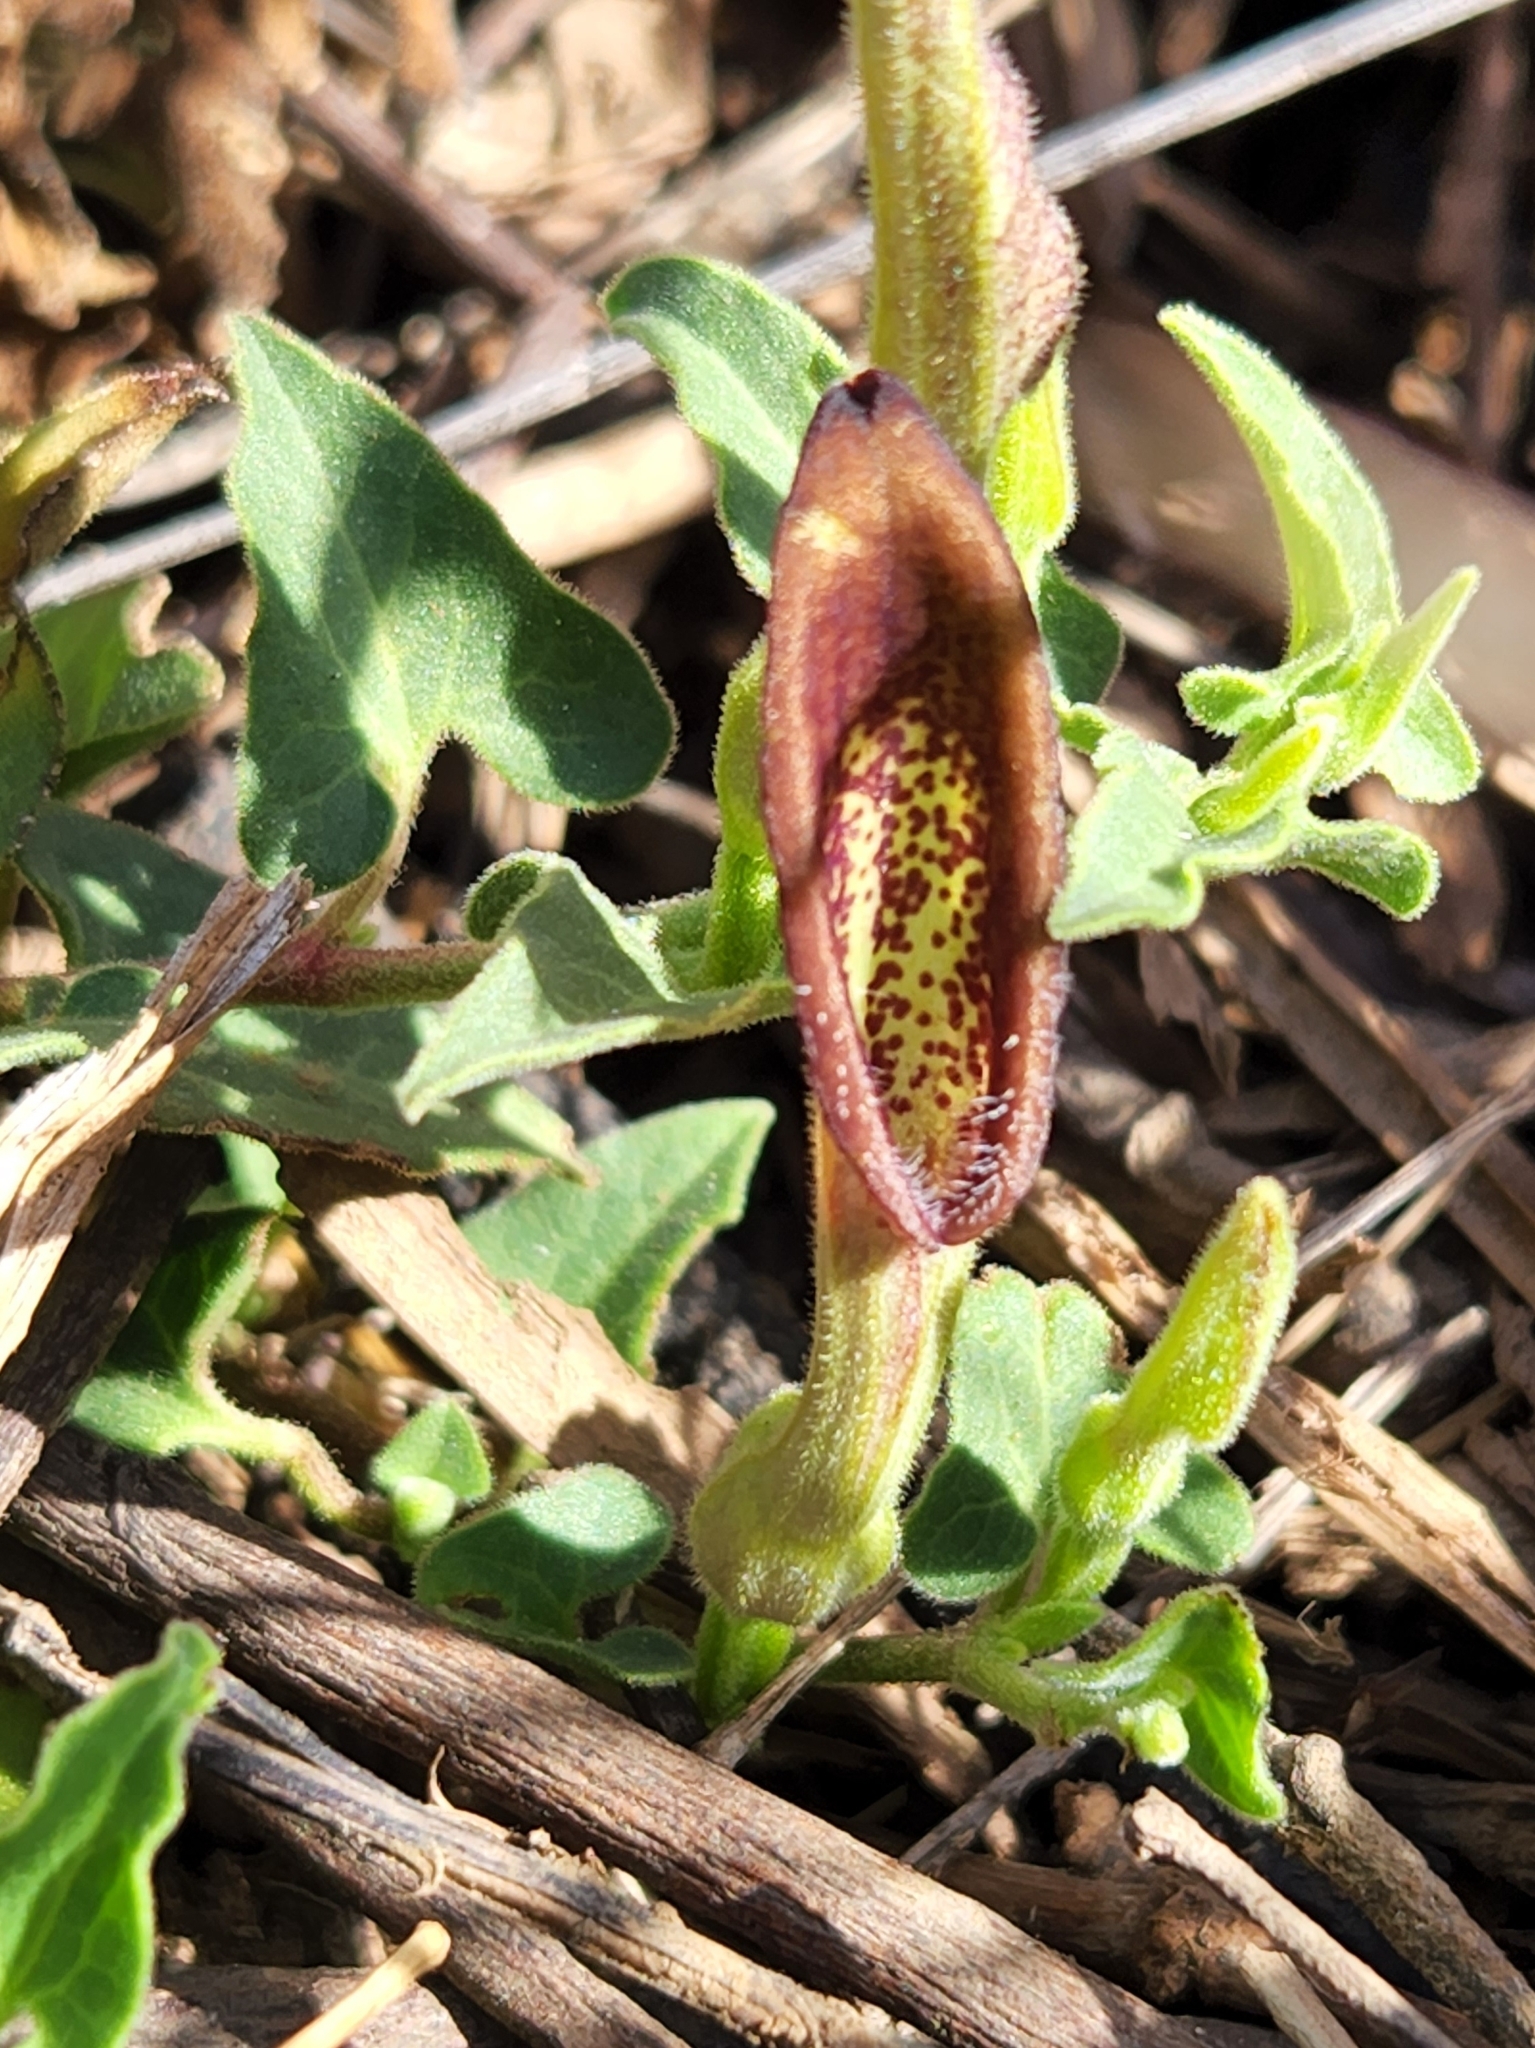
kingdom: Plantae
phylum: Tracheophyta
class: Magnoliopsida
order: Piperales
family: Aristolochiaceae
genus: Aristolochia
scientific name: Aristolochia watsonii
